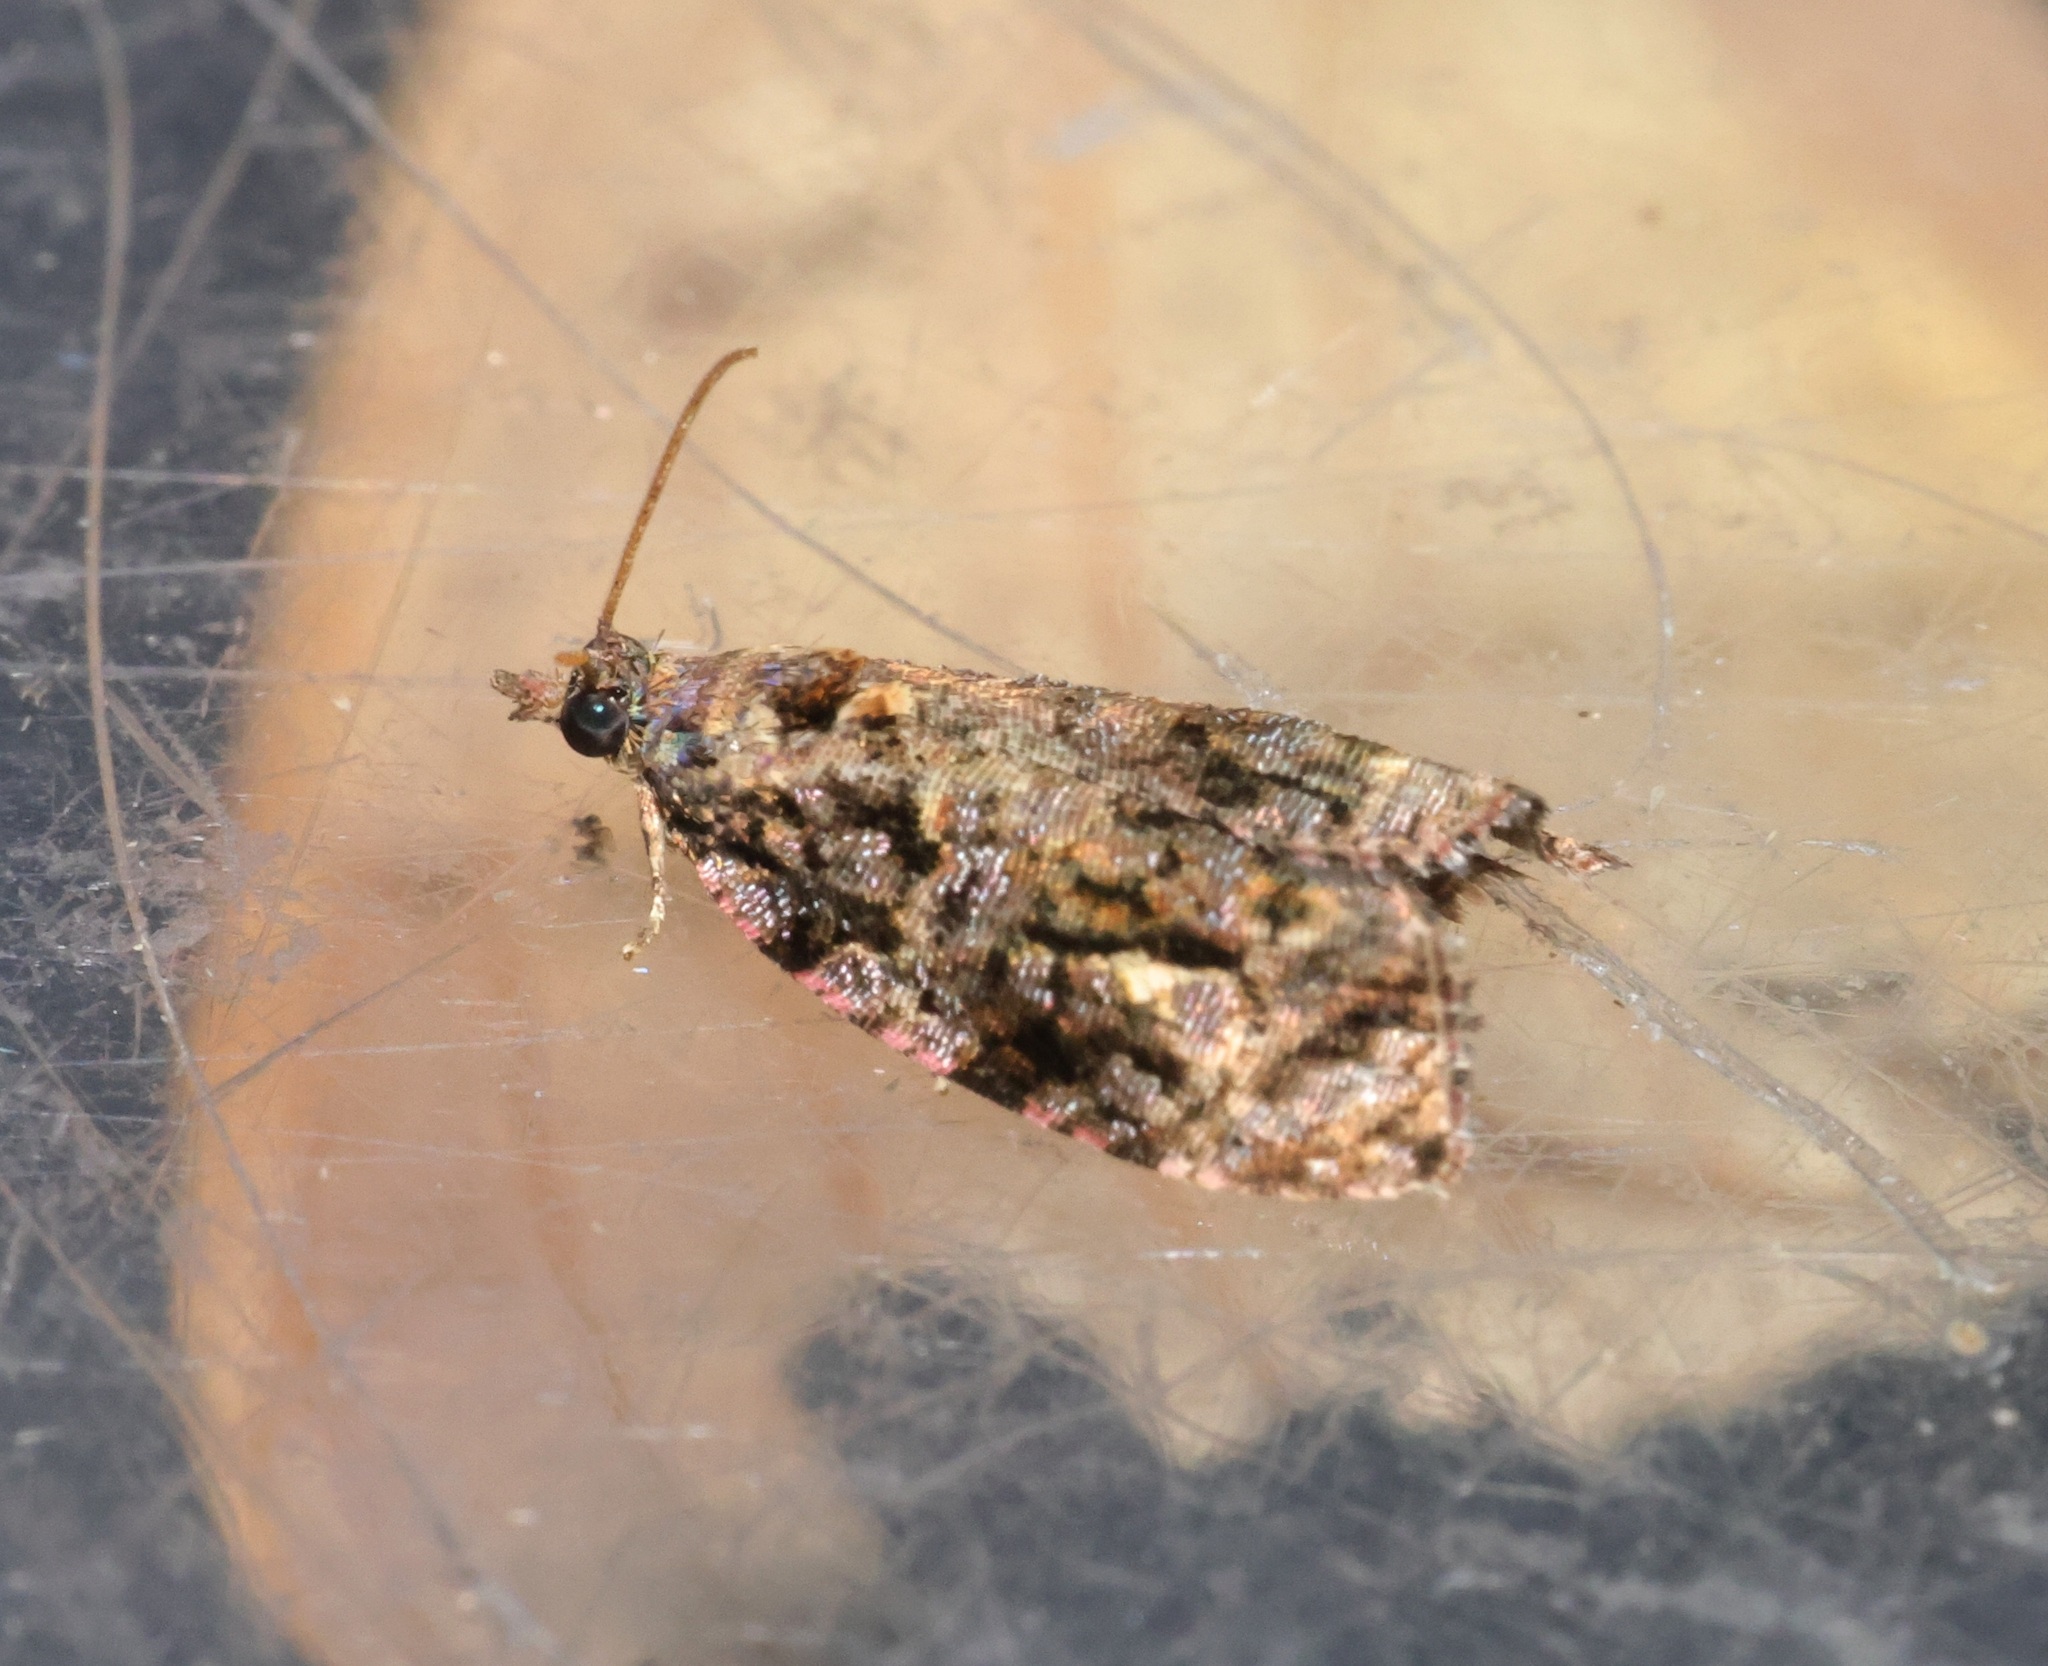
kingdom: Animalia
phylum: Arthropoda
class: Insecta
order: Lepidoptera
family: Tortricidae
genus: Gatesclarkeana
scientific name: Gatesclarkeana idia
